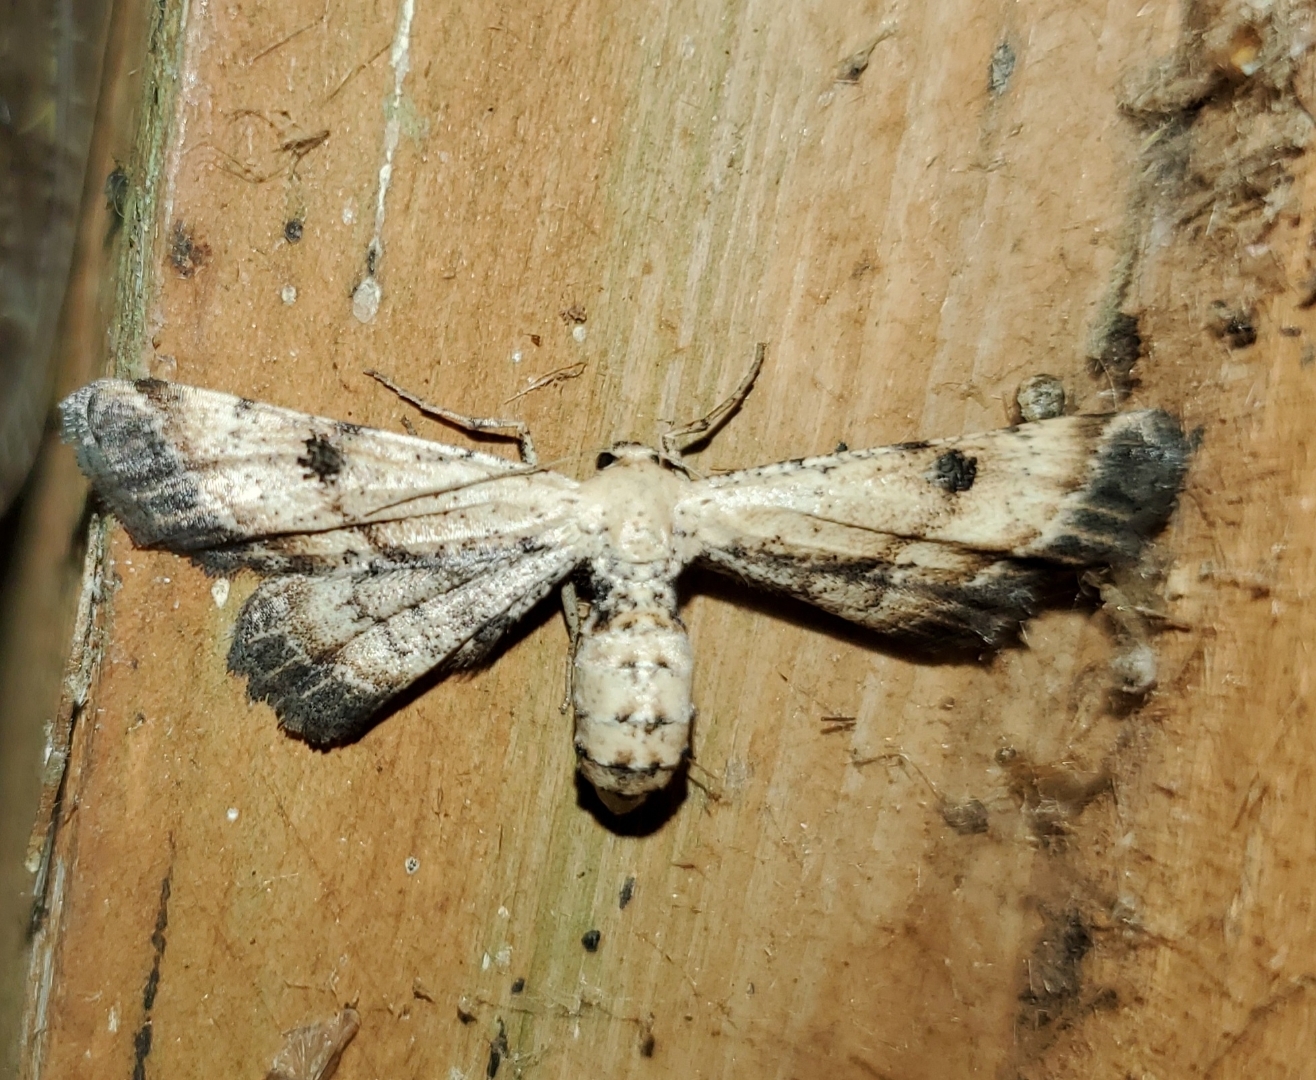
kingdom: Animalia
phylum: Arthropoda
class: Insecta
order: Lepidoptera
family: Geometridae
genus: Tornos
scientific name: Tornos scolopacinaria
